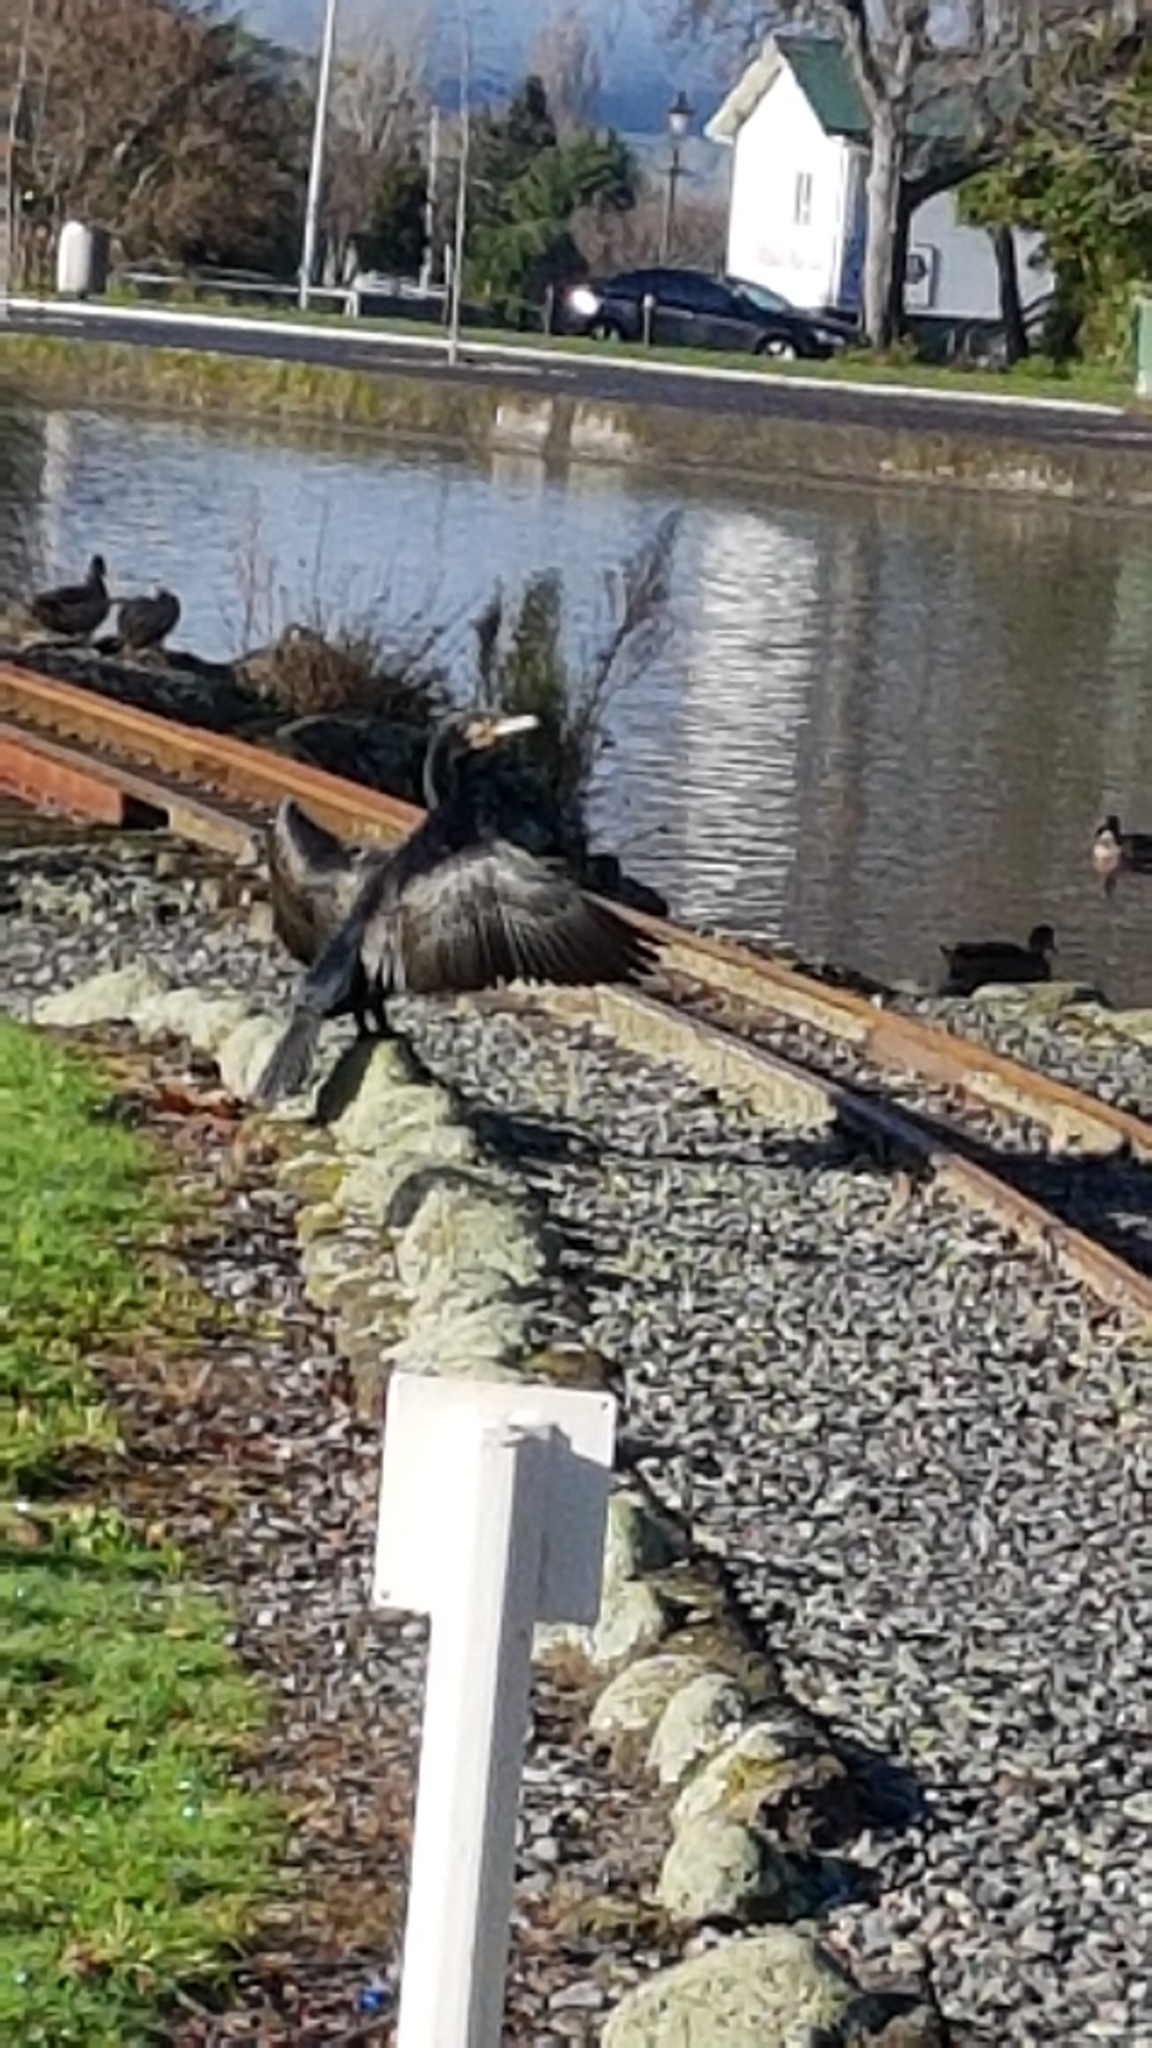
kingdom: Animalia
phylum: Chordata
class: Aves
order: Suliformes
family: Phalacrocoracidae
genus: Phalacrocorax
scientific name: Phalacrocorax carbo
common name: Great cormorant
